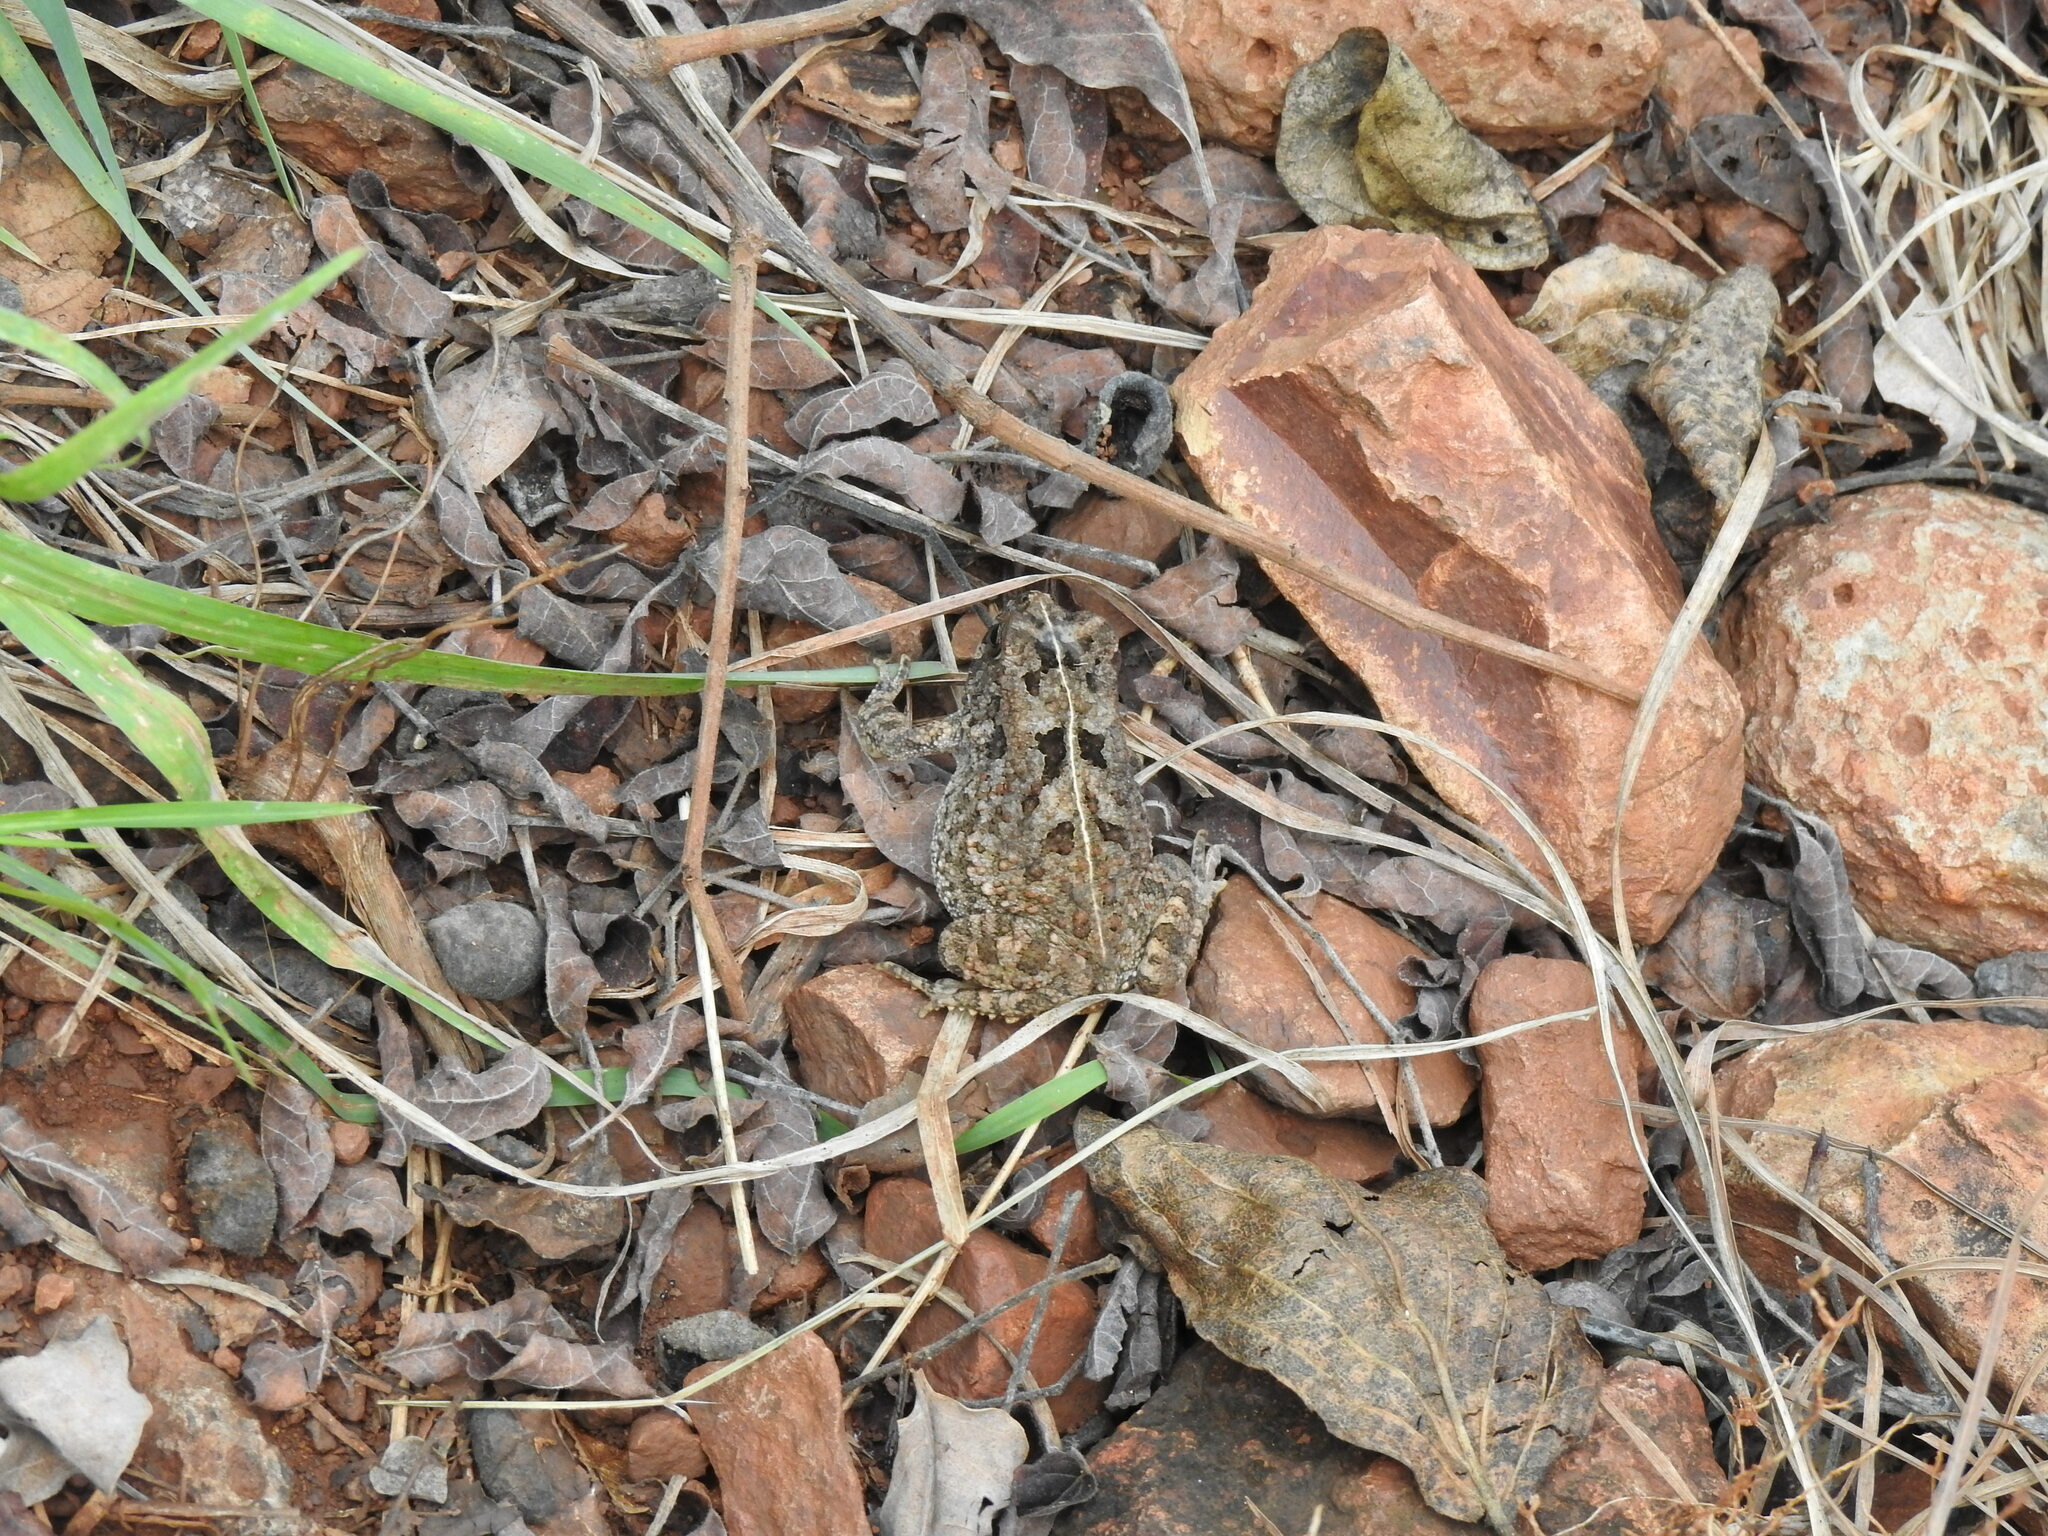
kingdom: Animalia
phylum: Chordata
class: Amphibia
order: Anura
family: Bufonidae
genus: Sclerophrys
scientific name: Sclerophrys gutturalis
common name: African common toad
